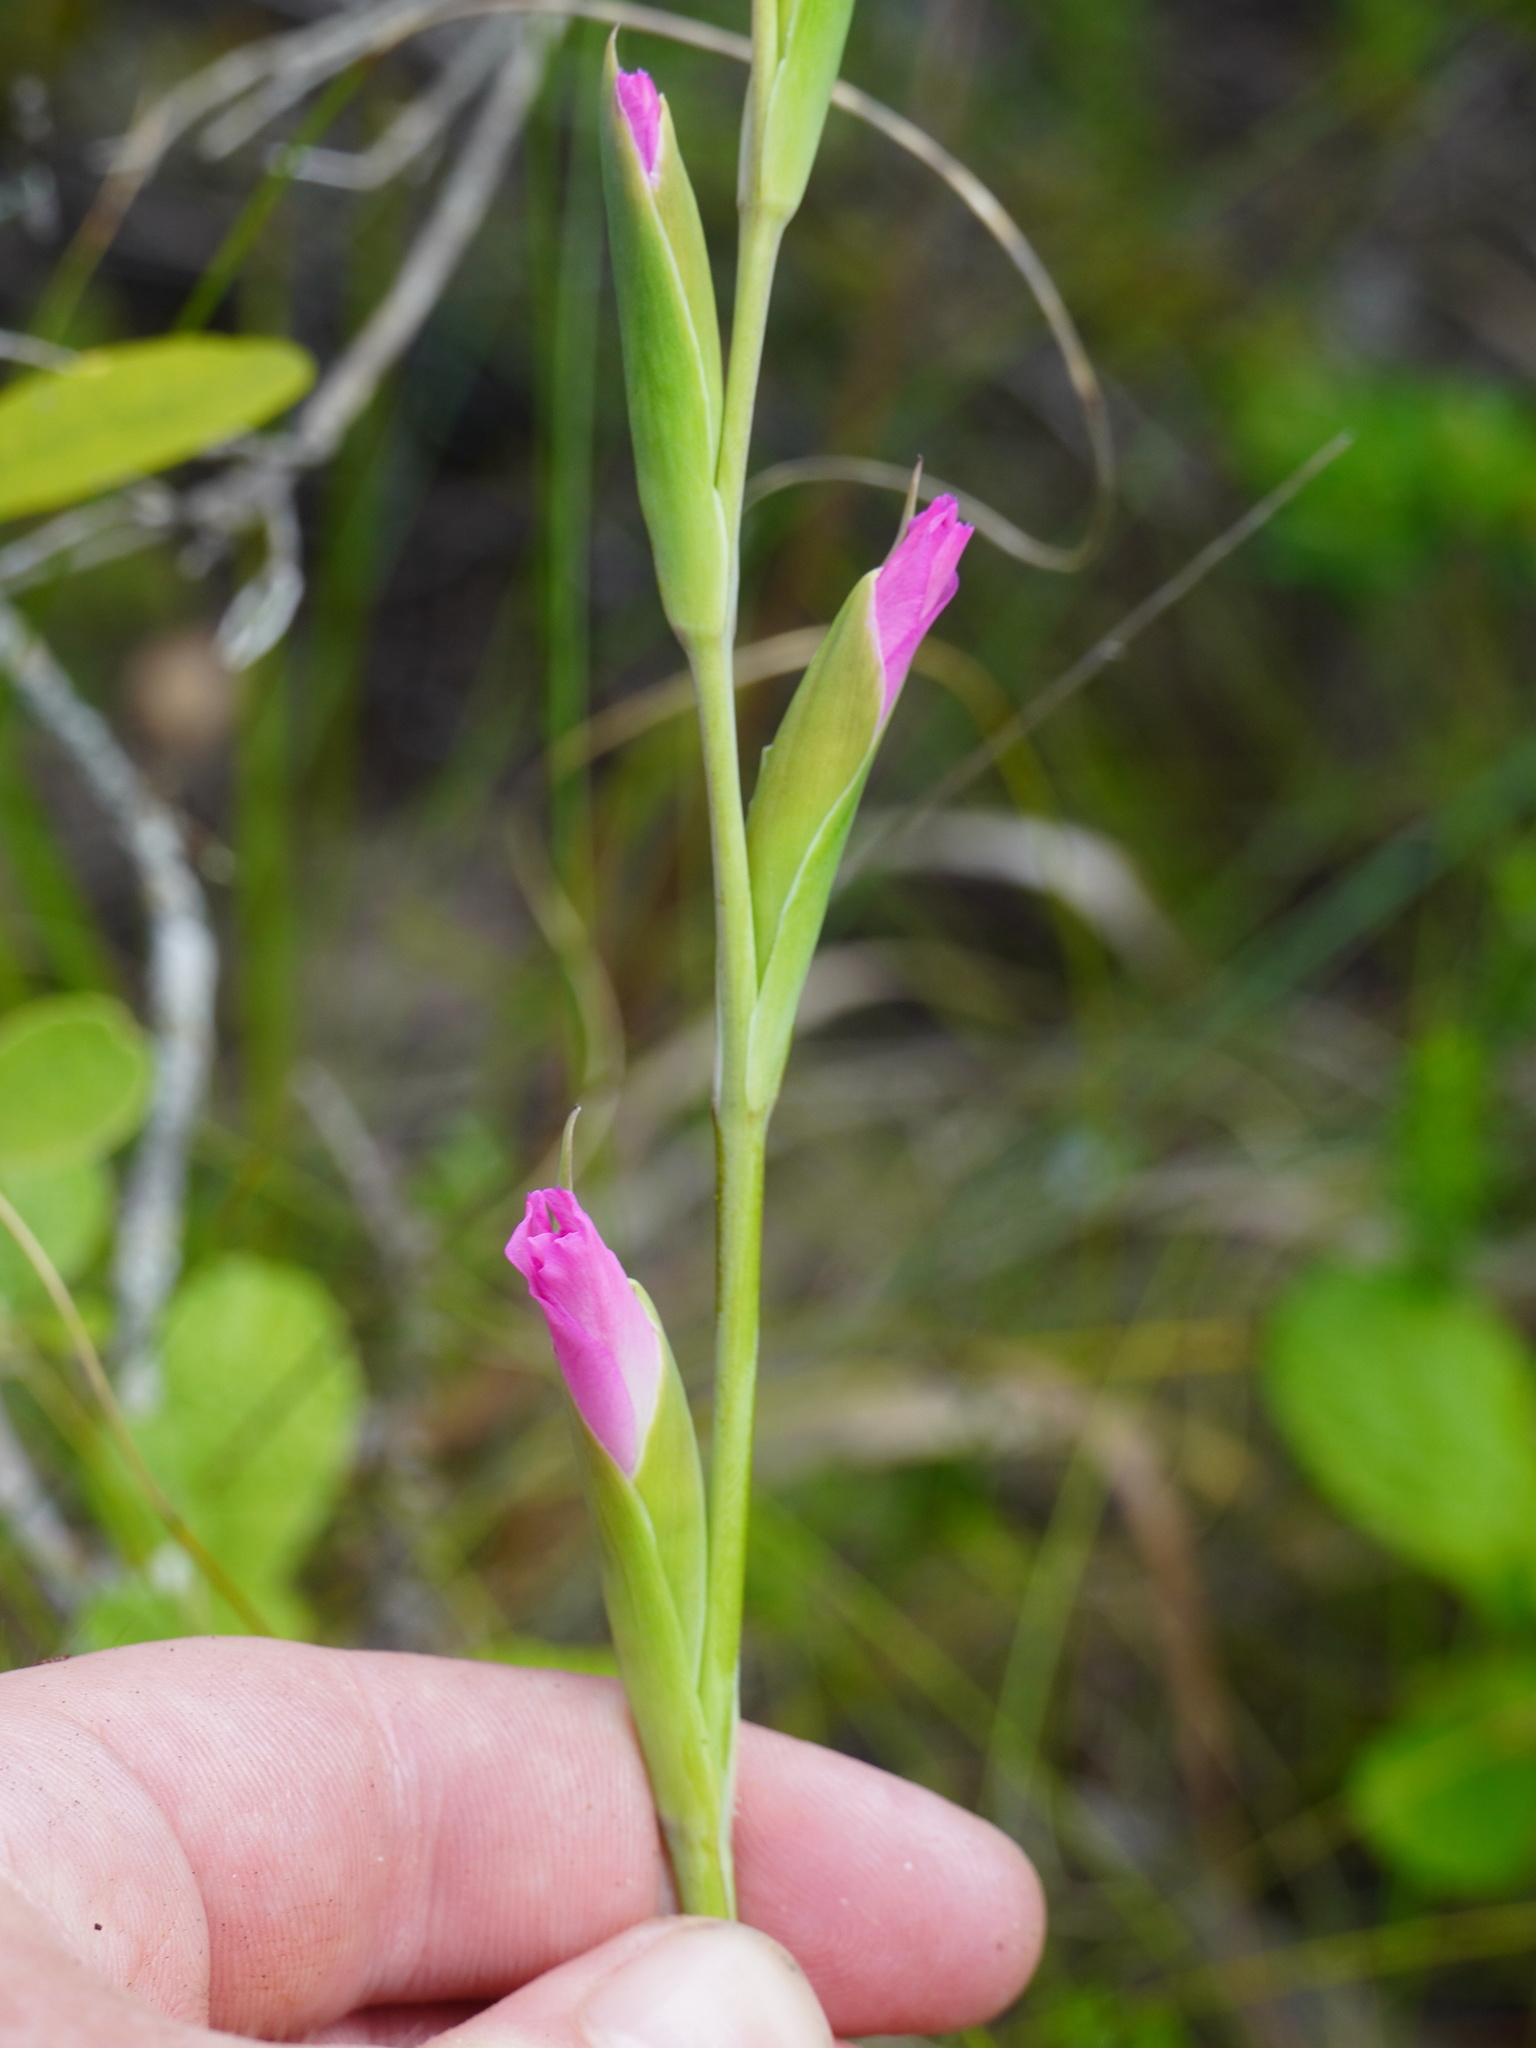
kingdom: Plantae
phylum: Tracheophyta
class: Liliopsida
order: Asparagales
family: Iridaceae
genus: Gladiolus
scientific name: Gladiolus ochroleucus
